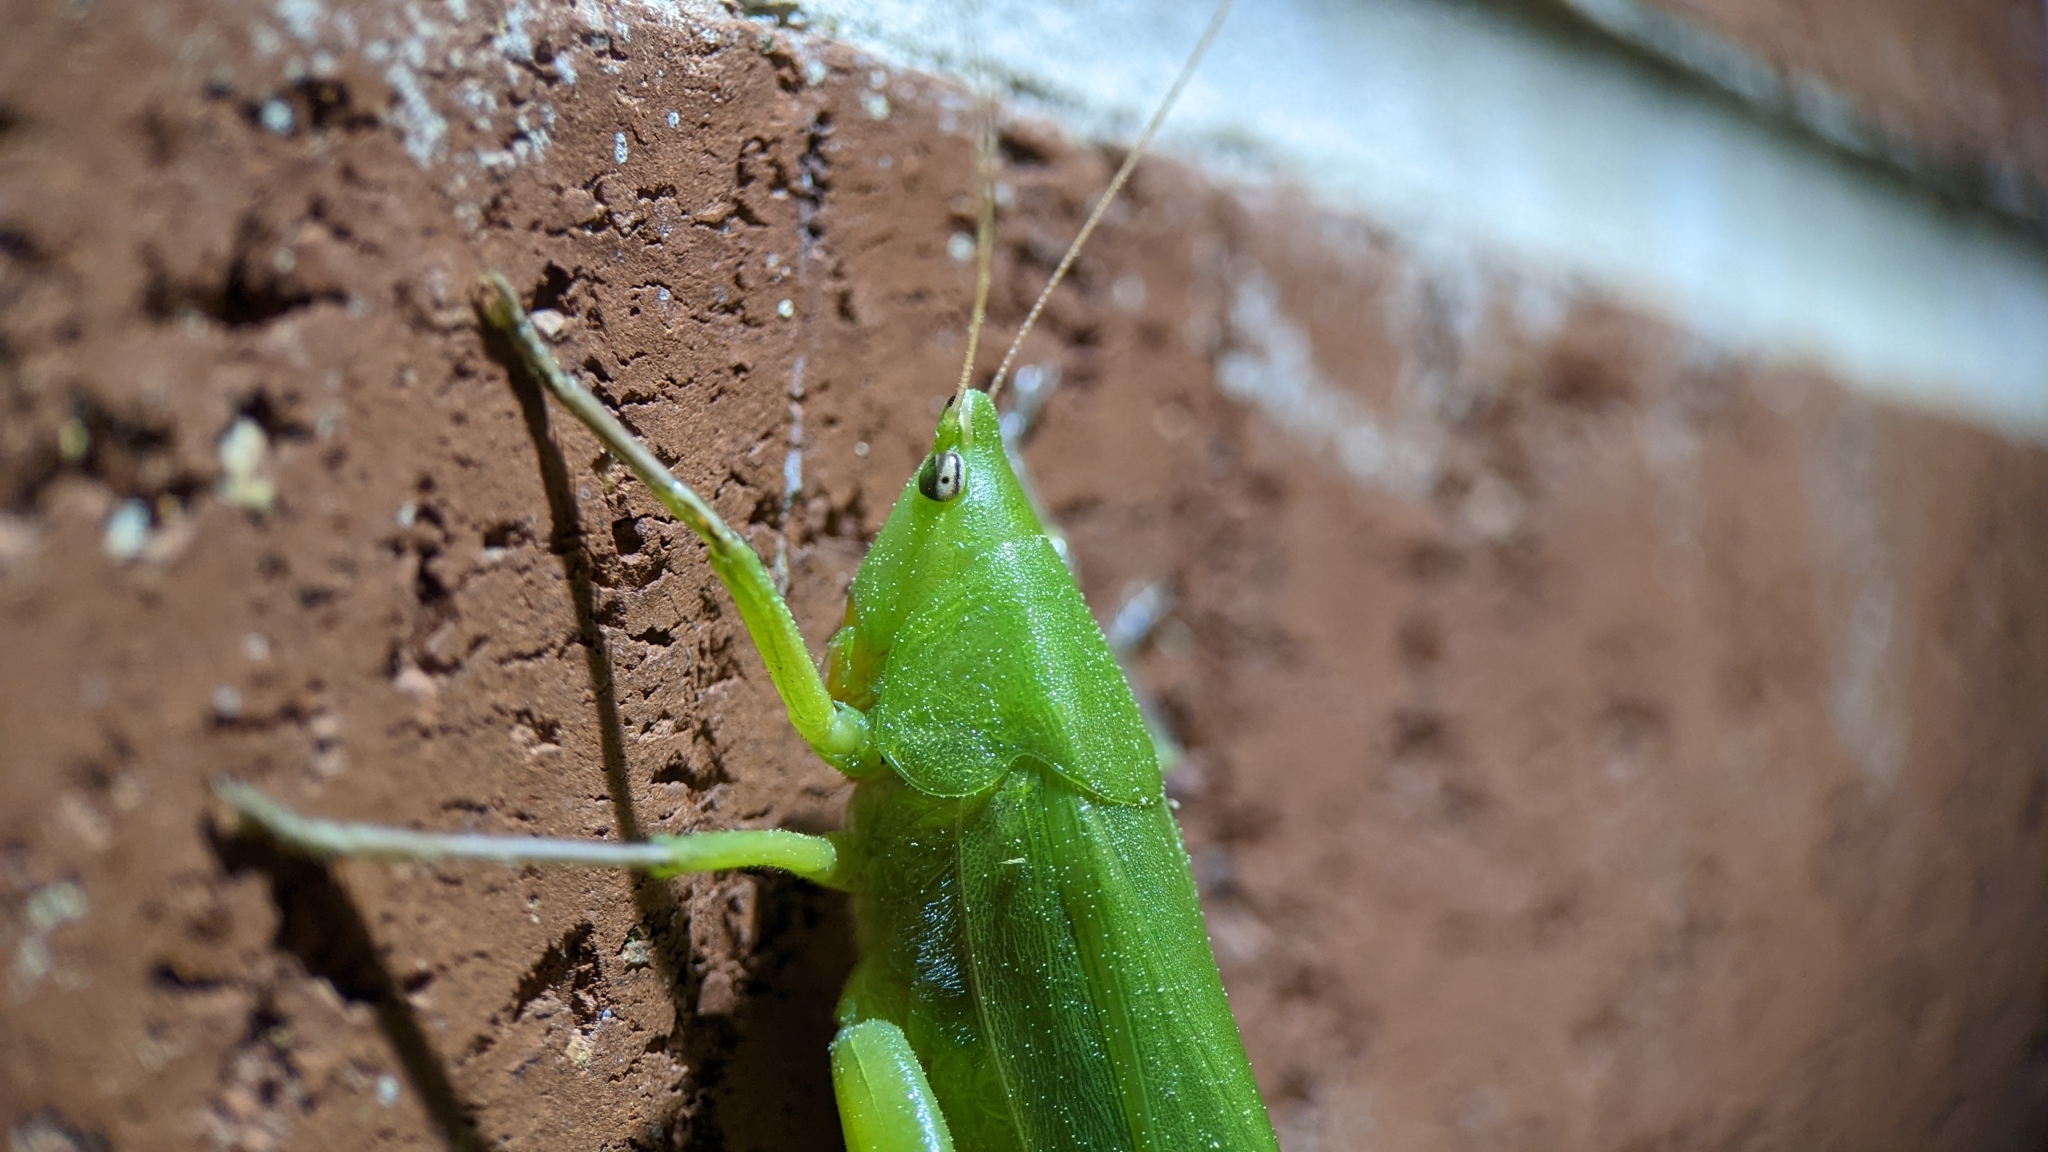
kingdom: Animalia
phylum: Arthropoda
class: Insecta
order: Orthoptera
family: Tettigoniidae
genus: Neoconocephalus
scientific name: Neoconocephalus triops
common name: Broad-tipped conehead
